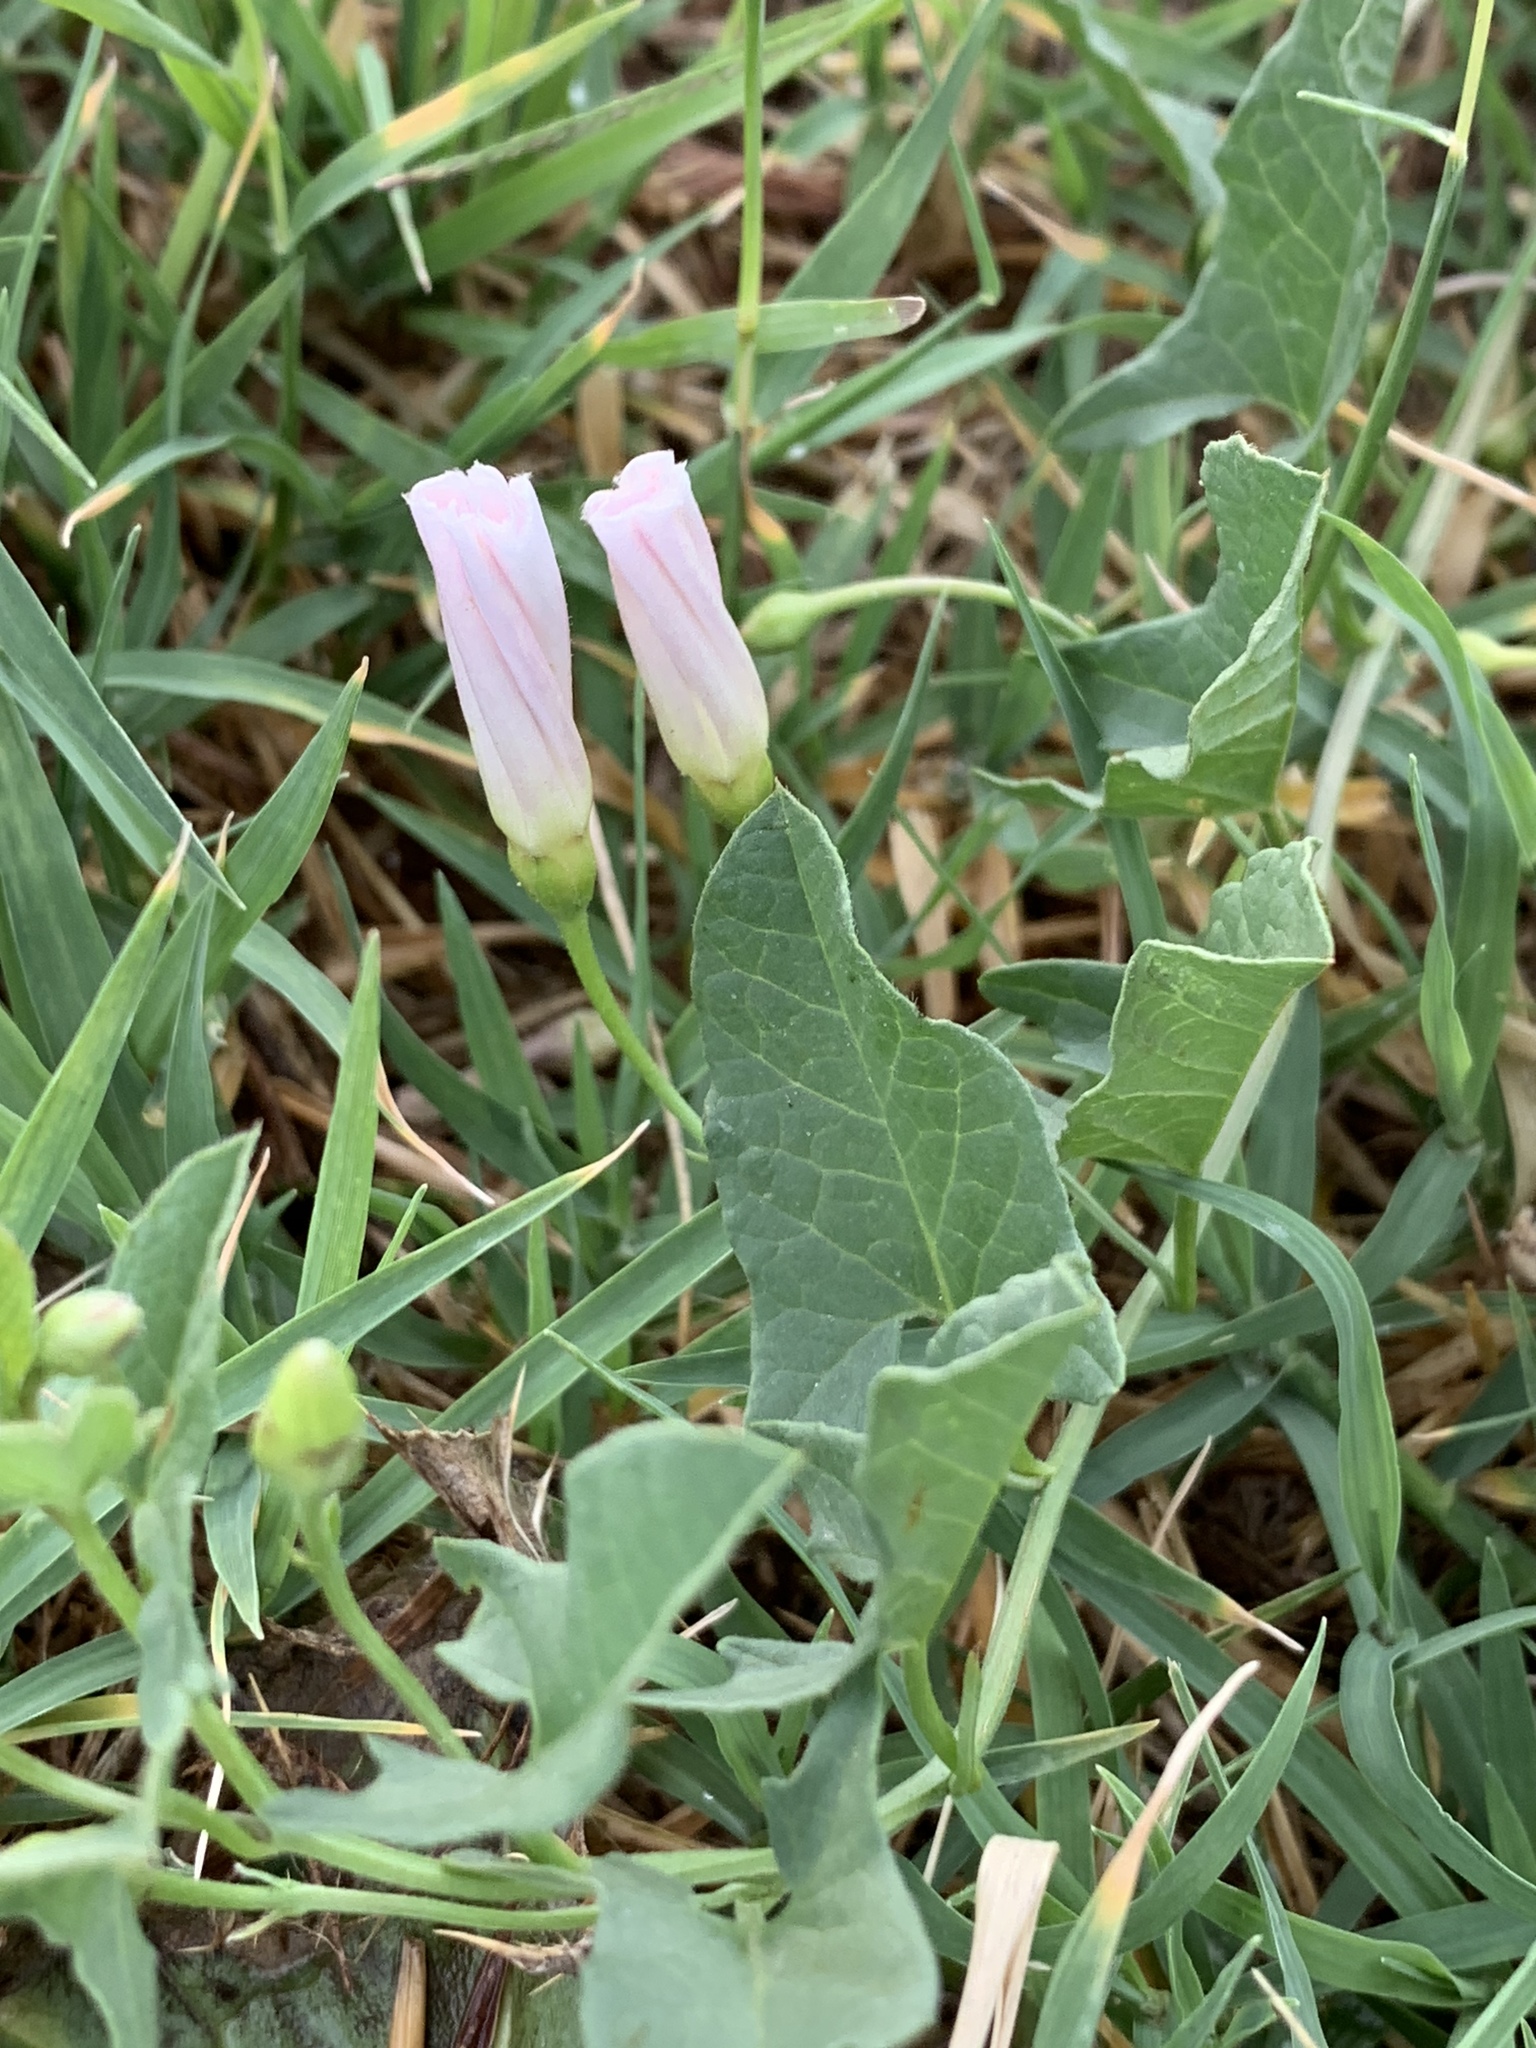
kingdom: Plantae
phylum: Tracheophyta
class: Magnoliopsida
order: Solanales
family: Convolvulaceae
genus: Convolvulus
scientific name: Convolvulus arvensis
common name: Field bindweed
